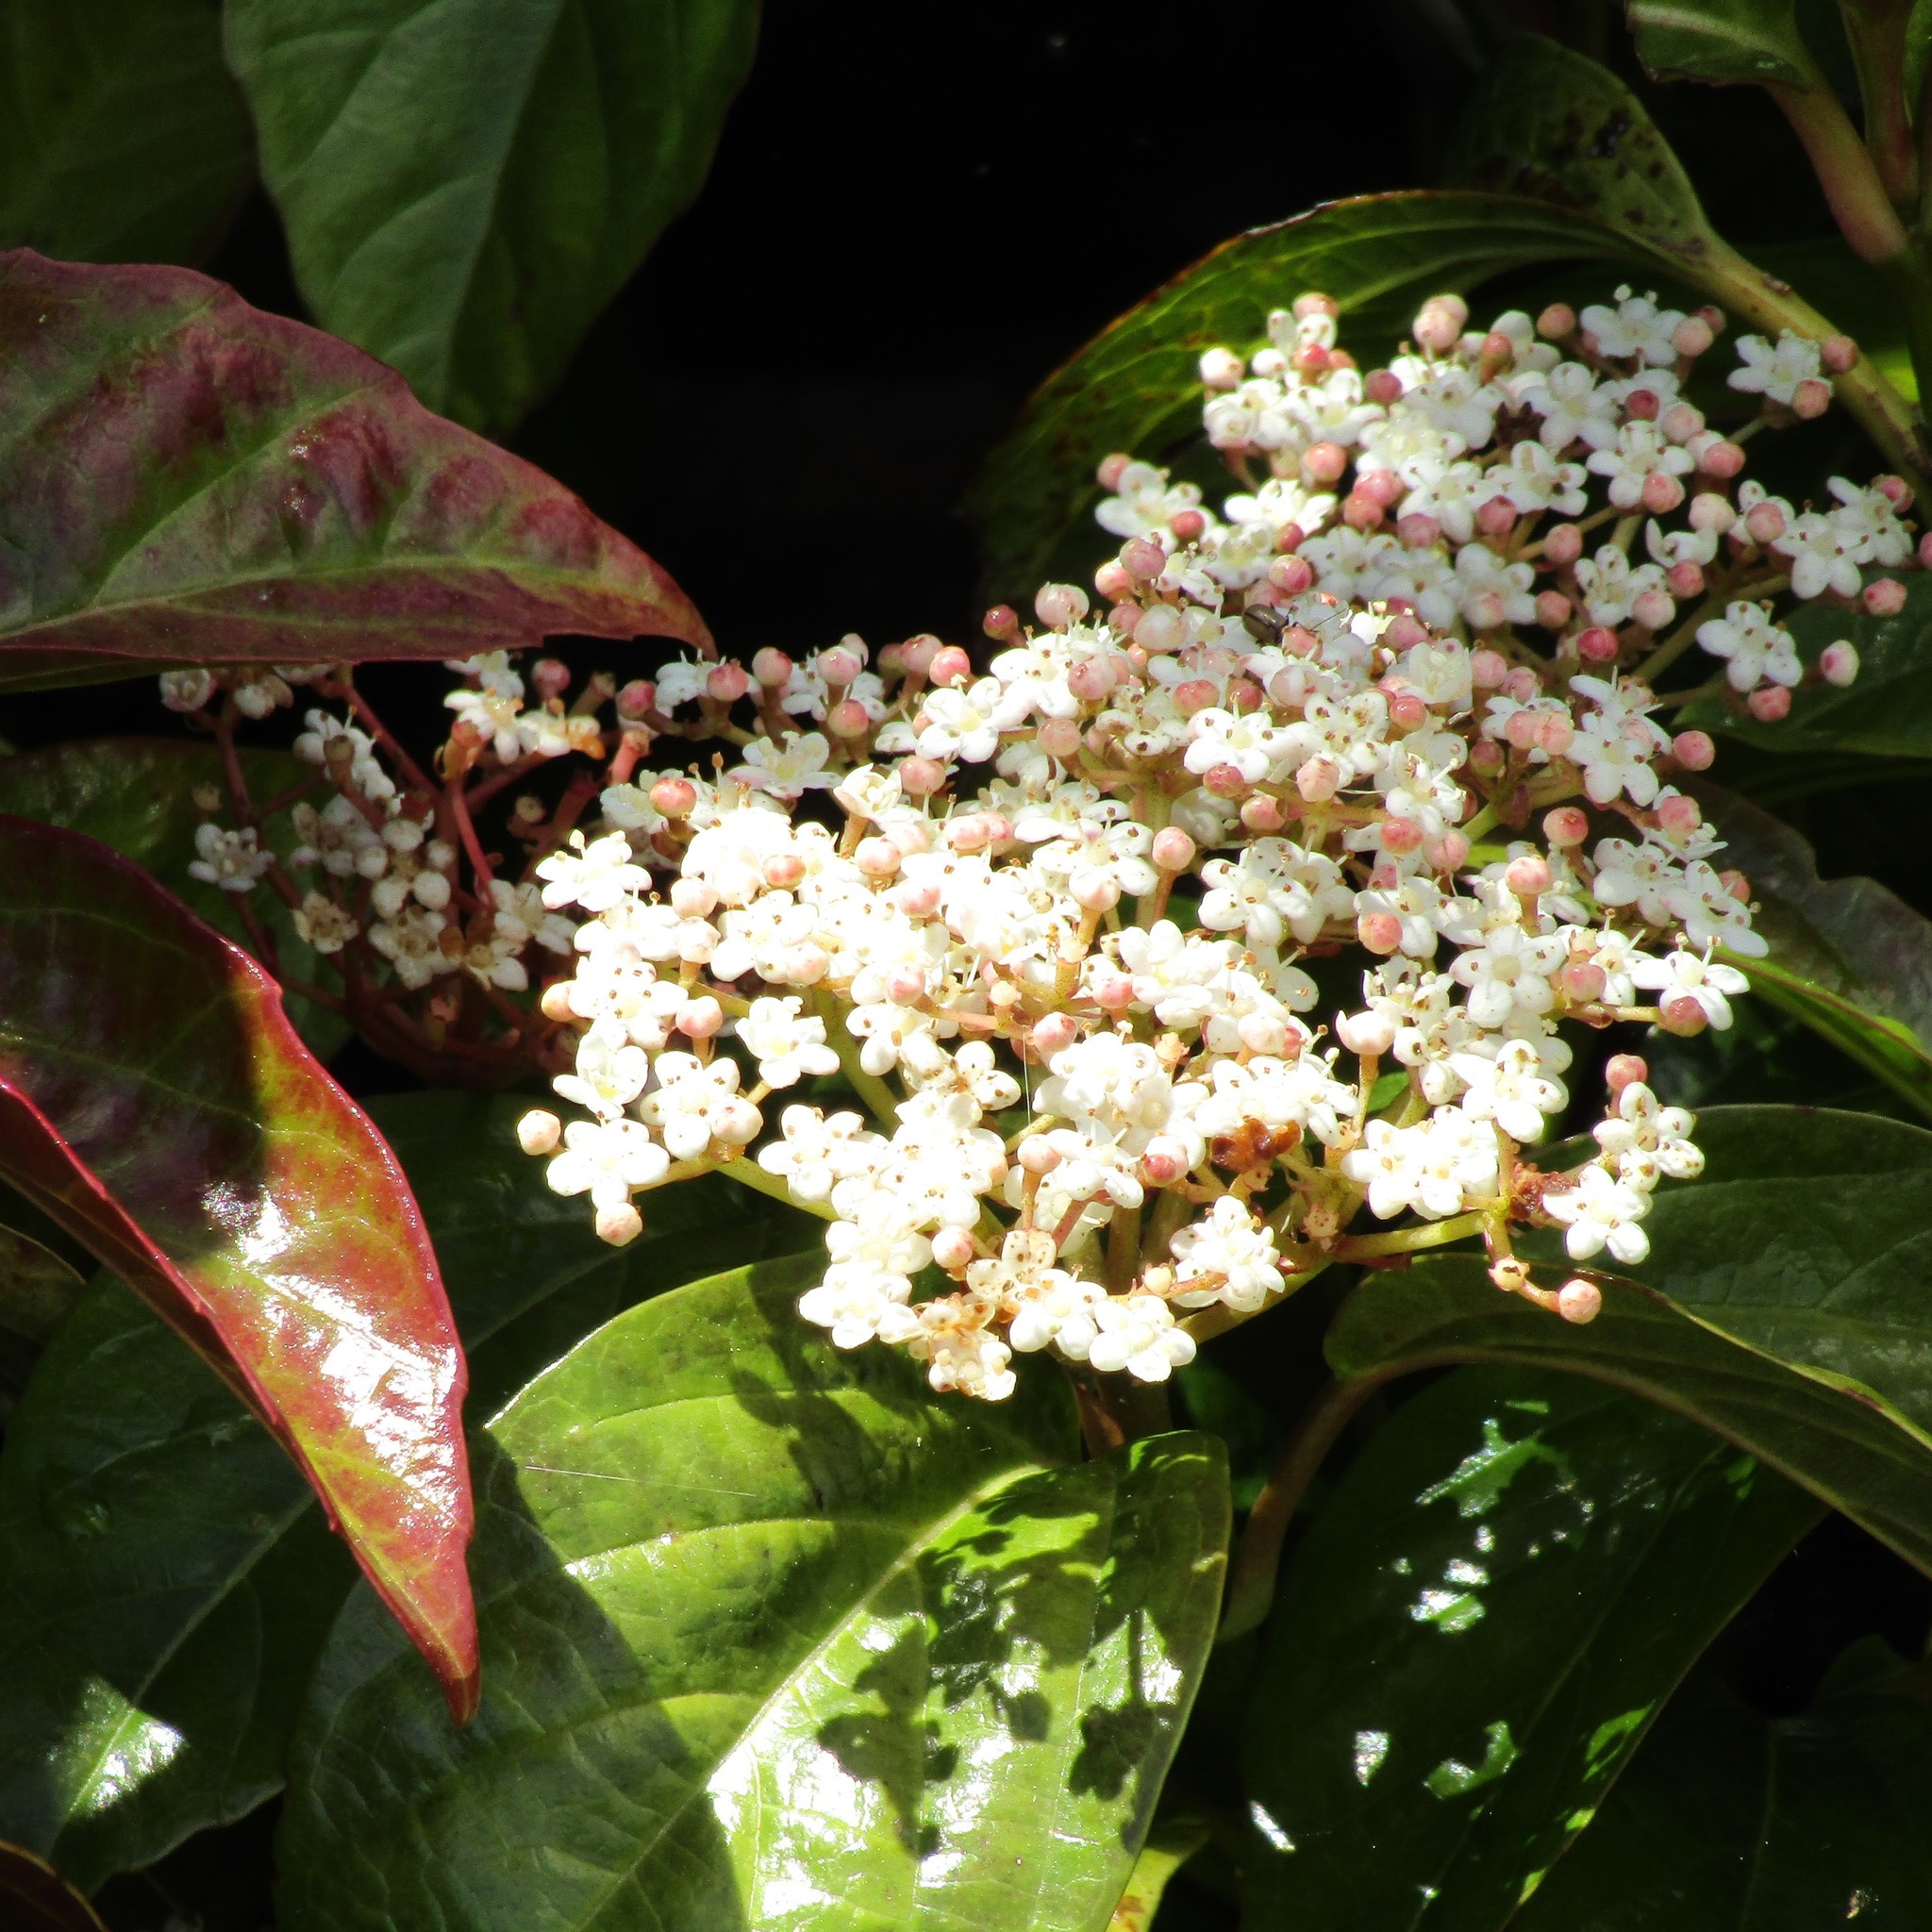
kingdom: Plantae
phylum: Tracheophyta
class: Magnoliopsida
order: Dipsacales
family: Viburnaceae
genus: Viburnum
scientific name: Viburnum tinus
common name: Laurustinus
